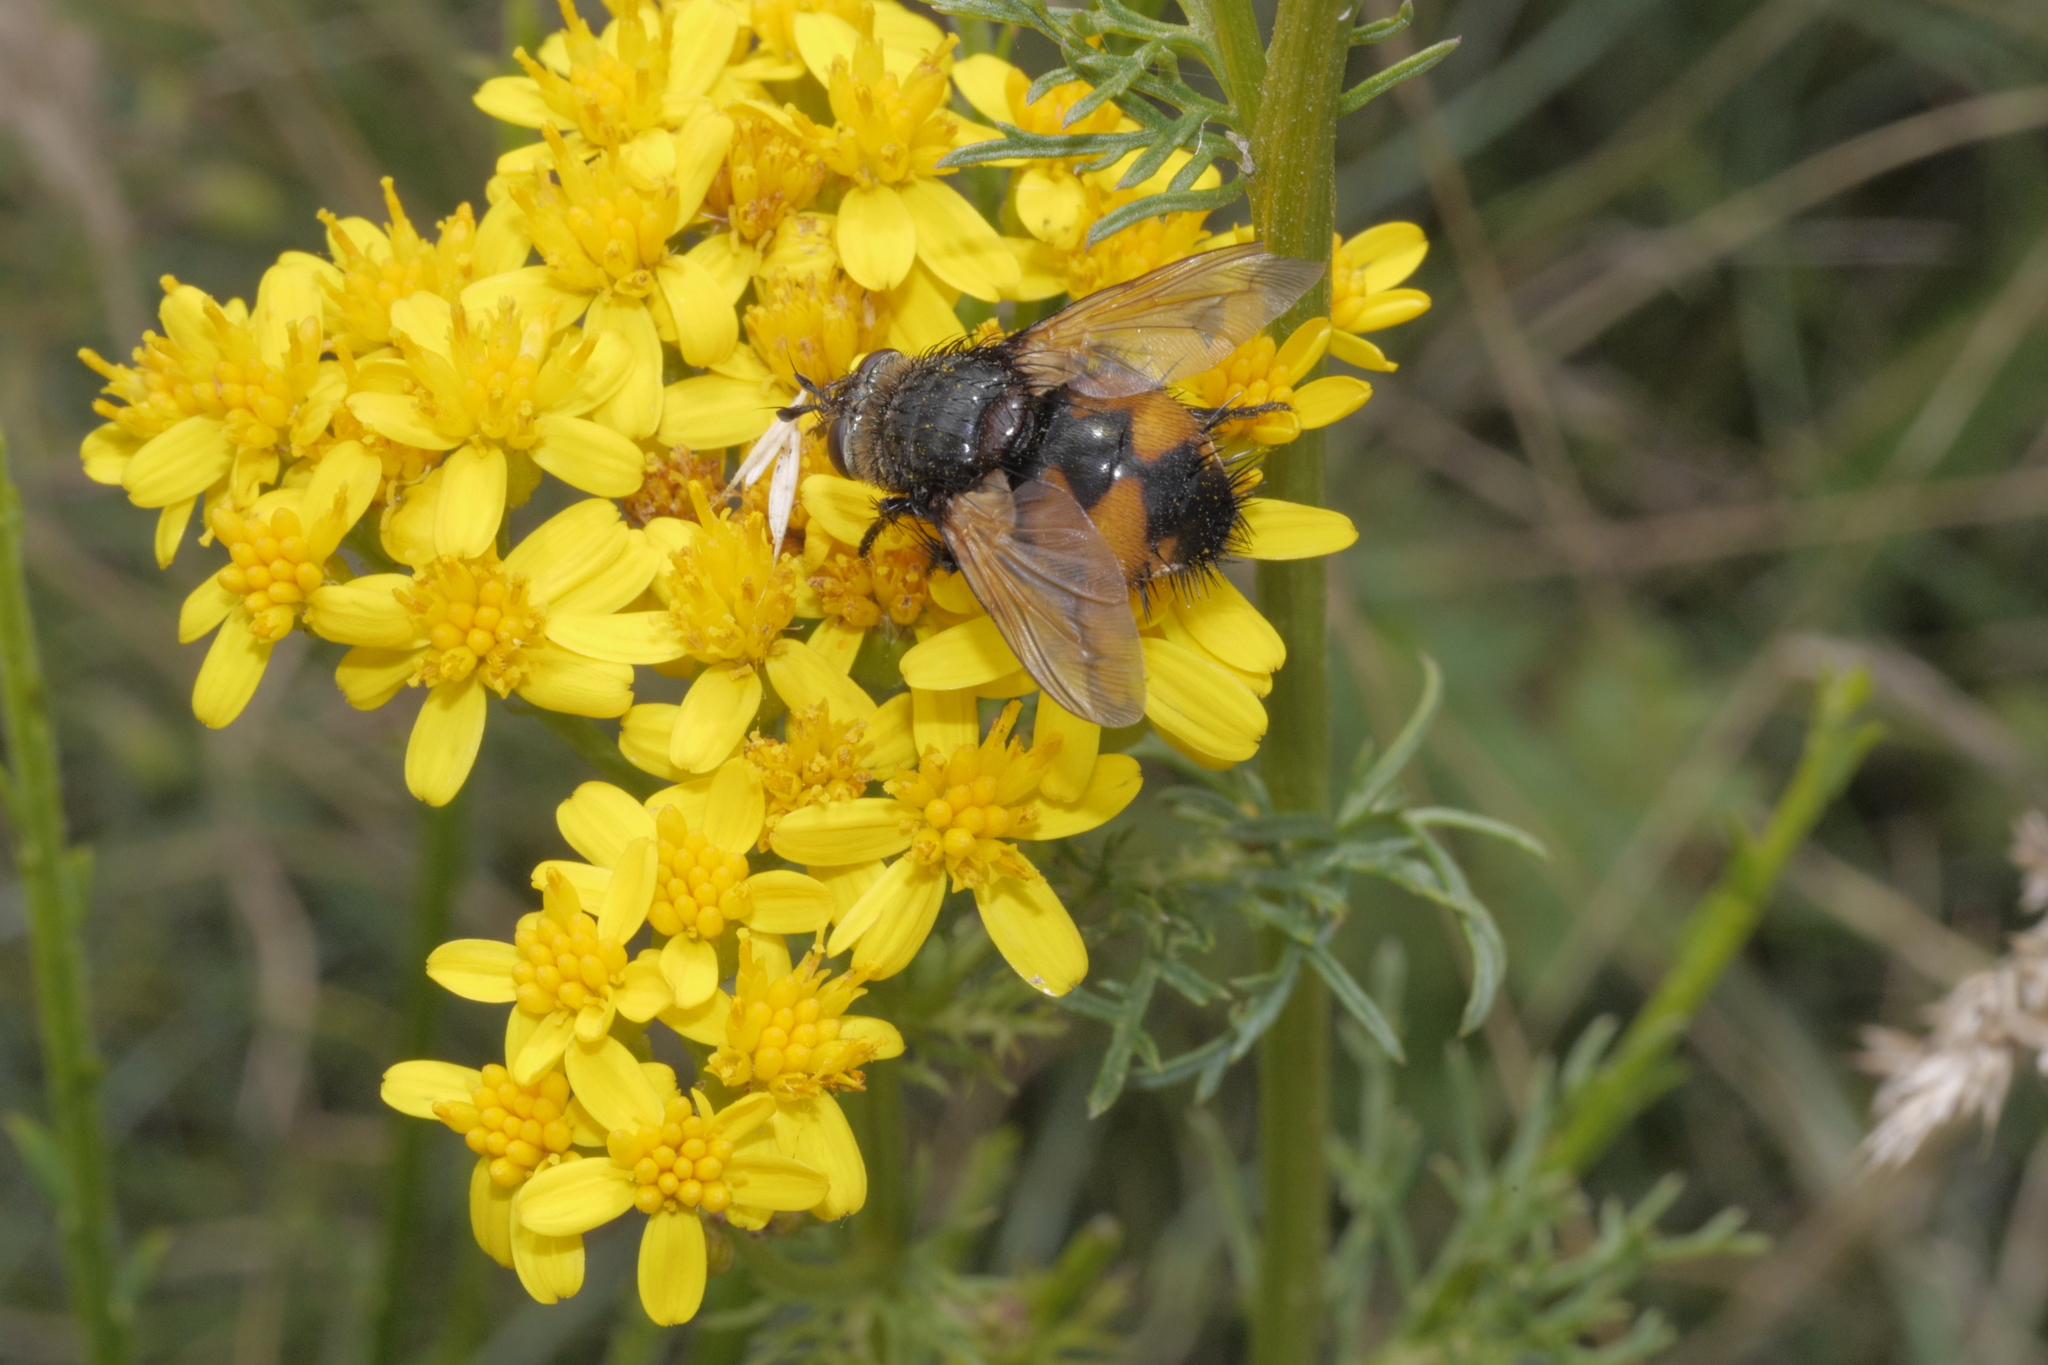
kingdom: Animalia
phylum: Arthropoda
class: Insecta
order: Diptera
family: Tachinidae
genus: Nowickia
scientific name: Nowickia ferox
